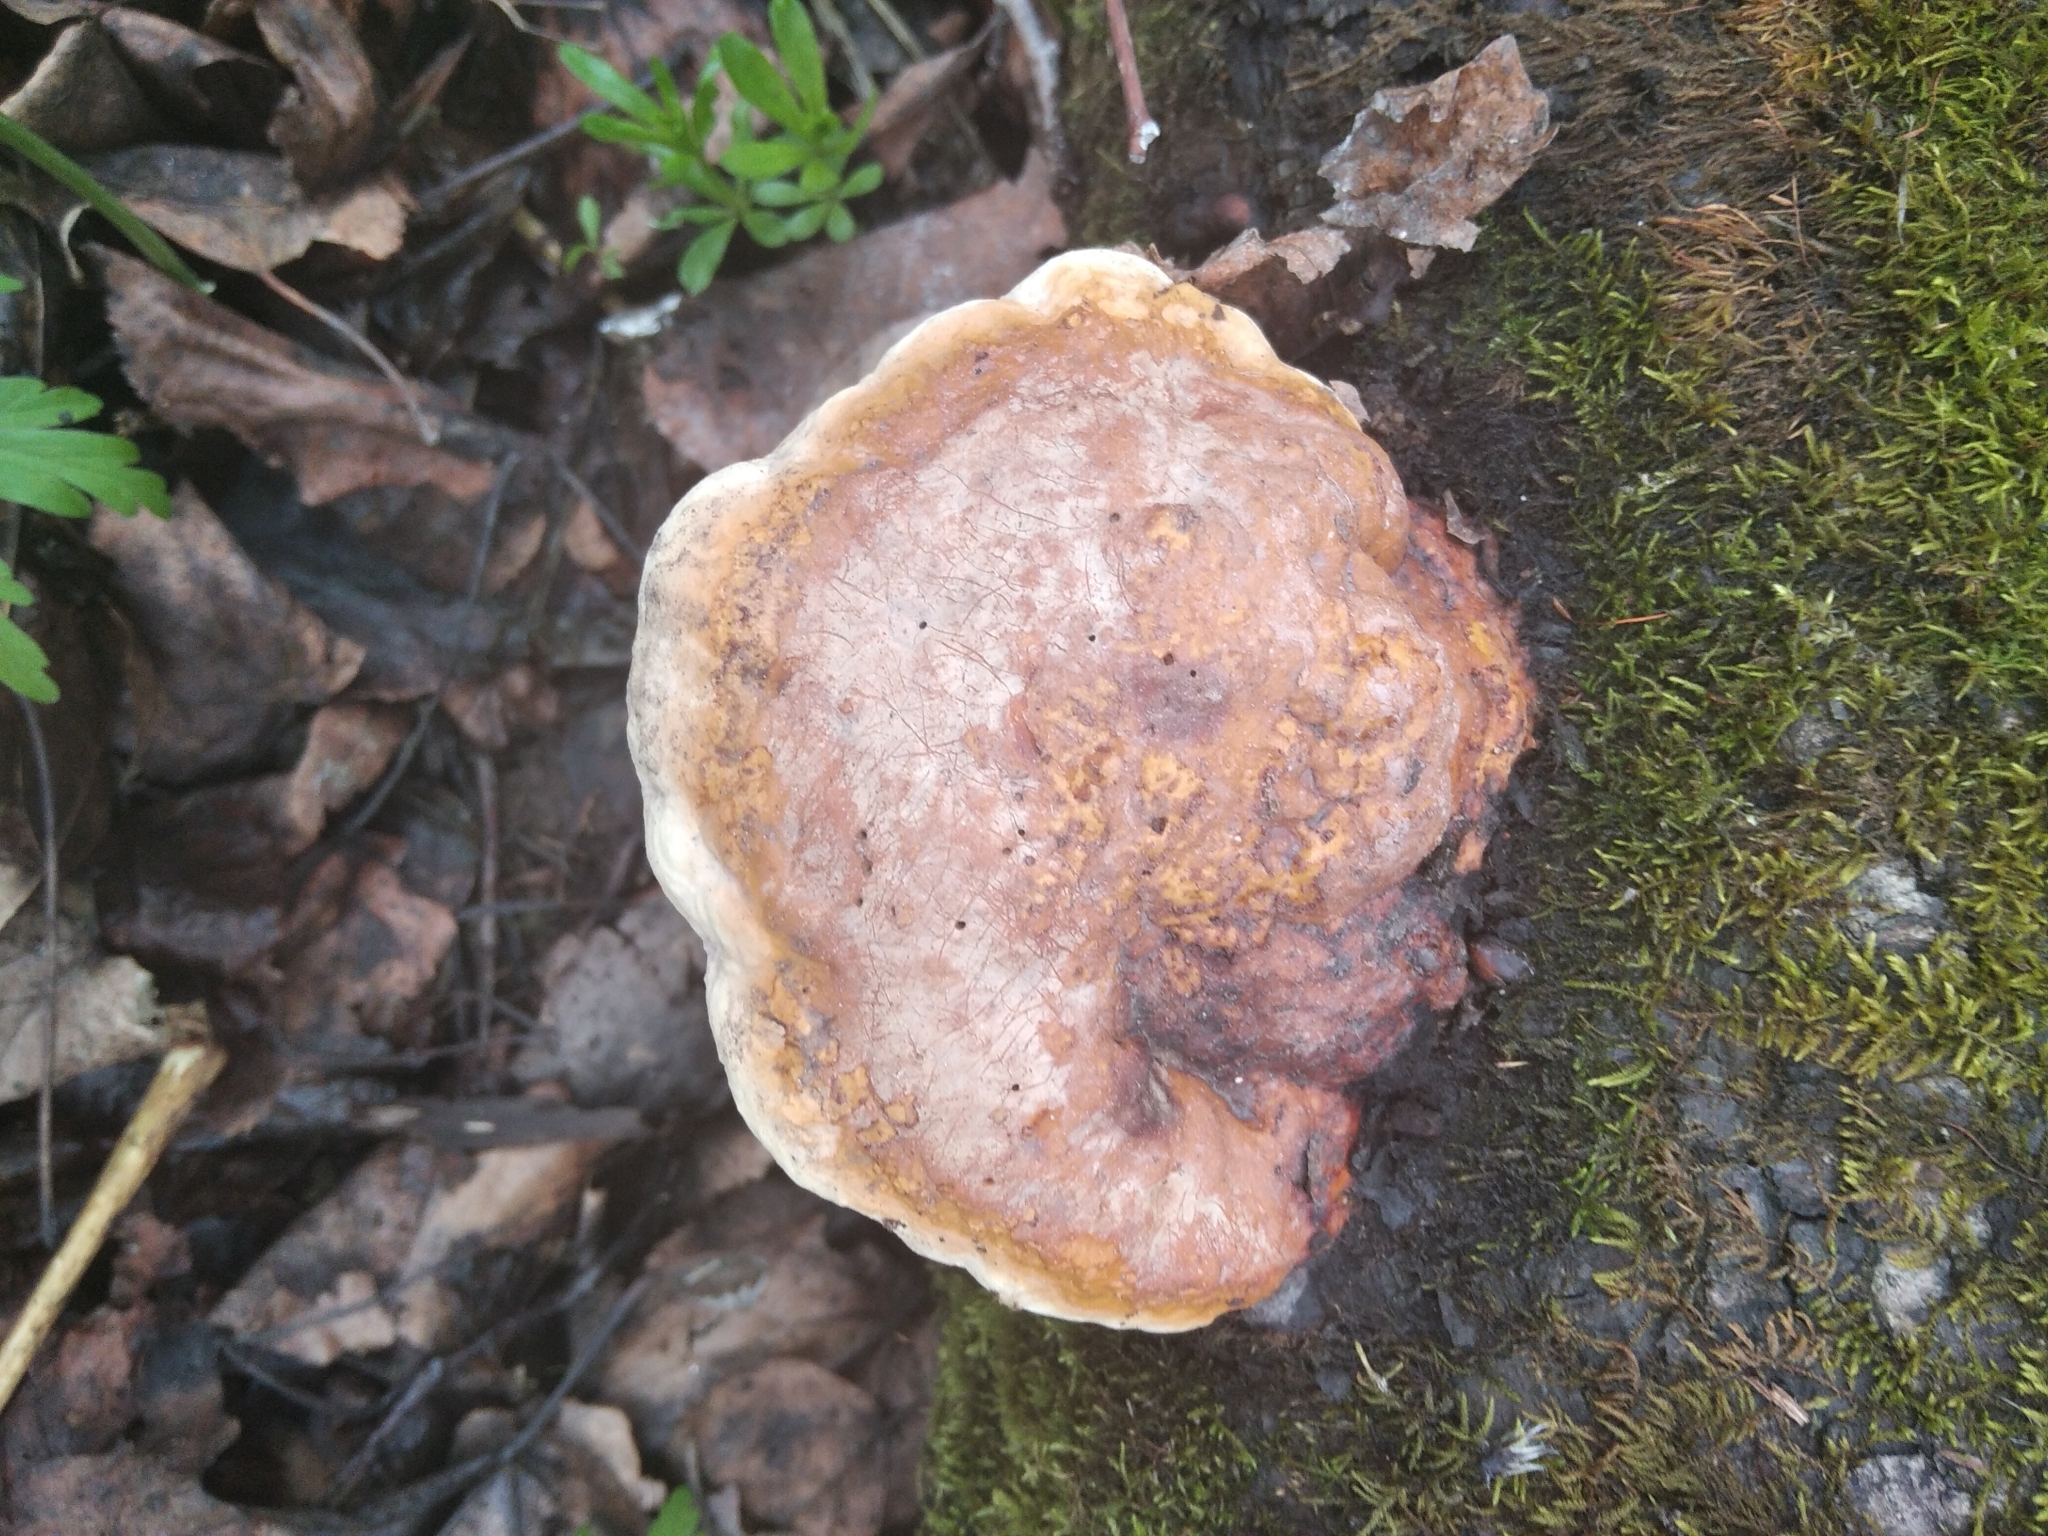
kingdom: Fungi
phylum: Basidiomycota
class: Agaricomycetes
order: Polyporales
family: Fomitopsidaceae
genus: Fomitopsis
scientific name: Fomitopsis pinicola
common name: Red-belted bracket
